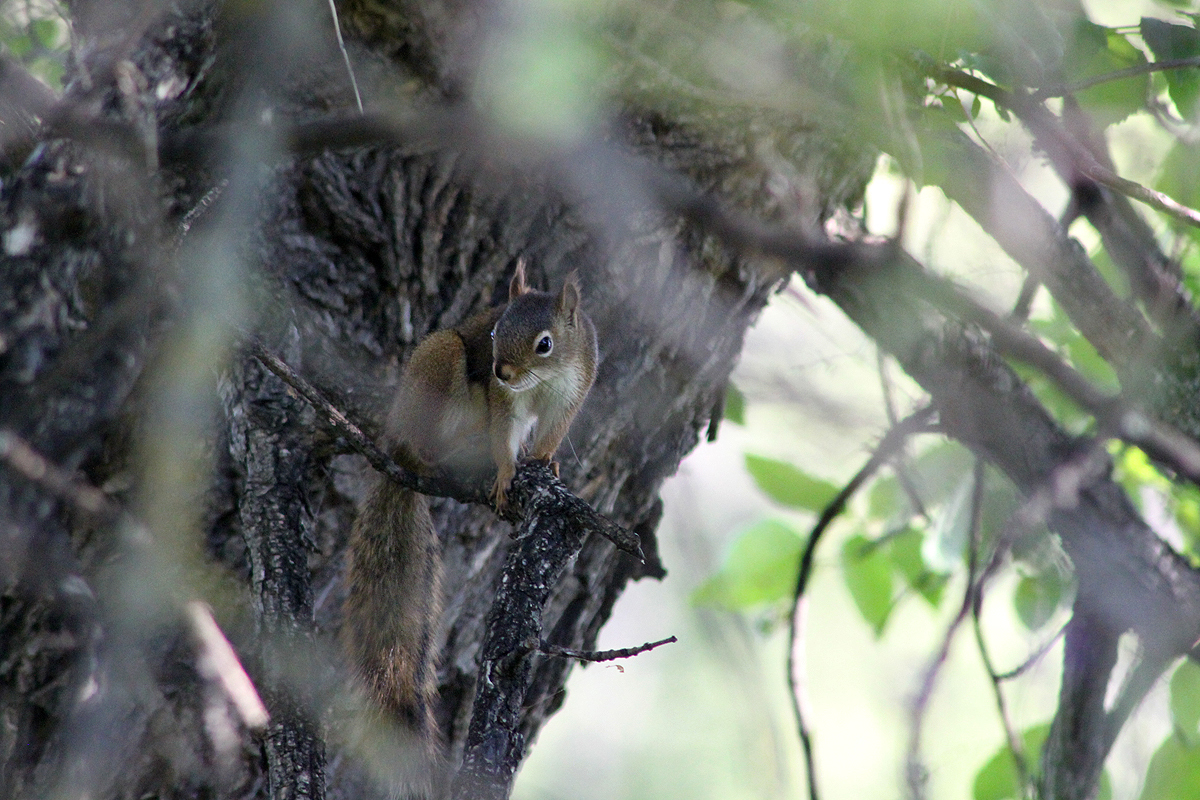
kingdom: Animalia
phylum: Chordata
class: Mammalia
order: Rodentia
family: Sciuridae
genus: Tamiasciurus
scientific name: Tamiasciurus hudsonicus
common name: Red squirrel
